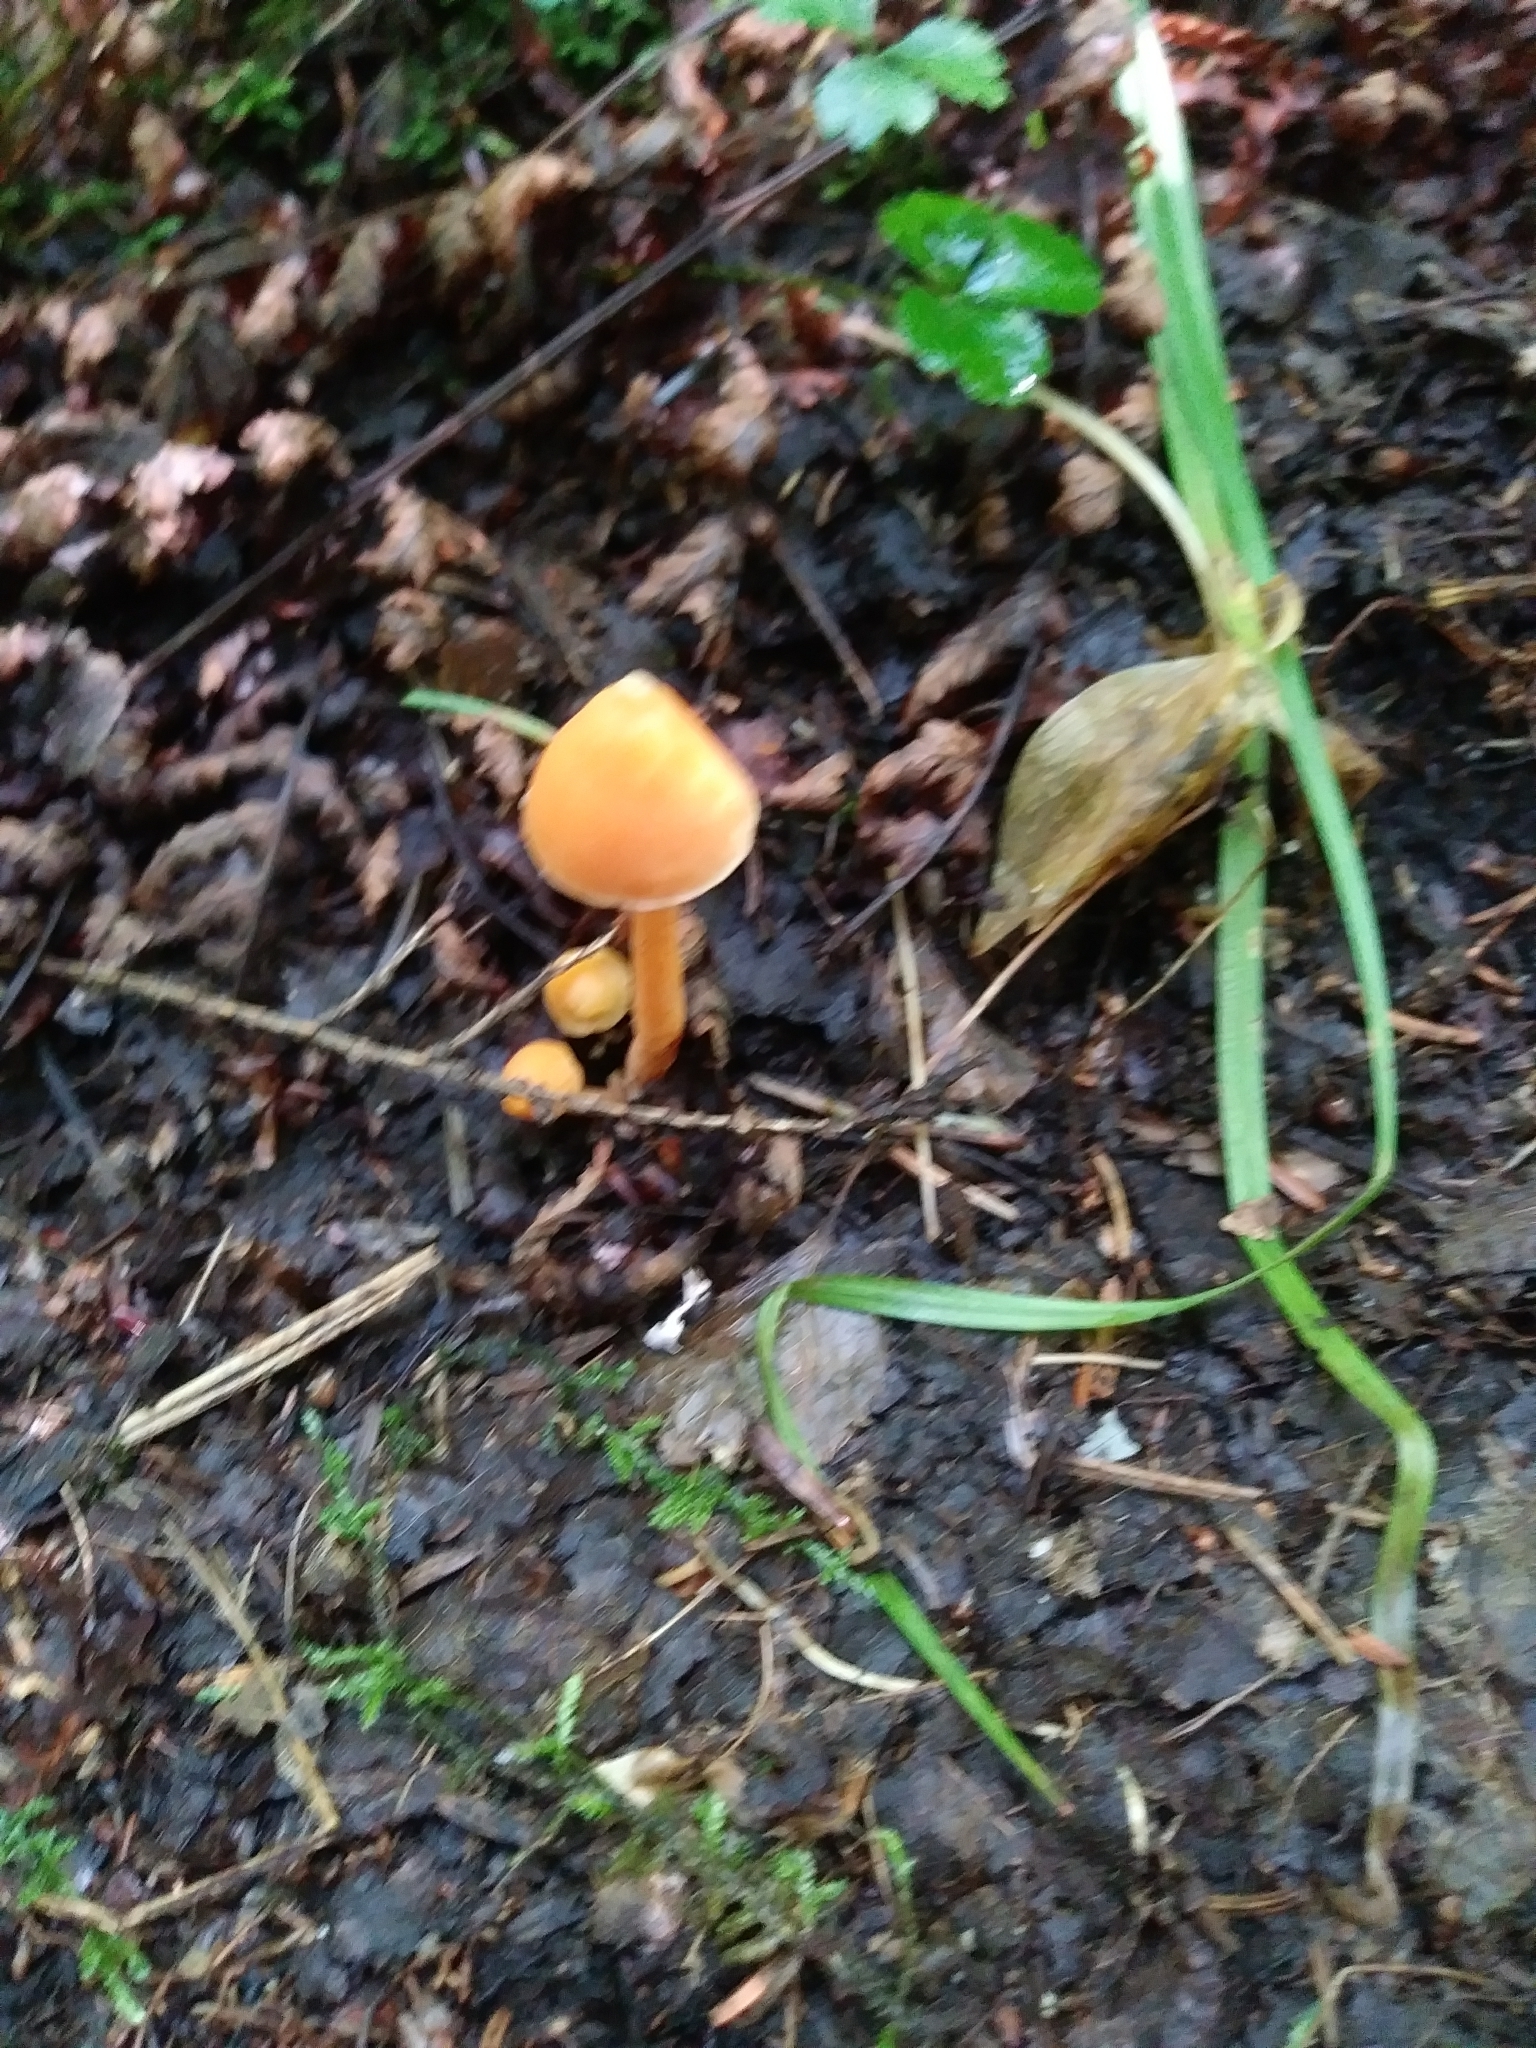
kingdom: Fungi
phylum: Basidiomycota
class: Agaricomycetes
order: Agaricales
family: Entolomataceae
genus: Entoloma
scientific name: Entoloma quadratum
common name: Salmon pinkgill
